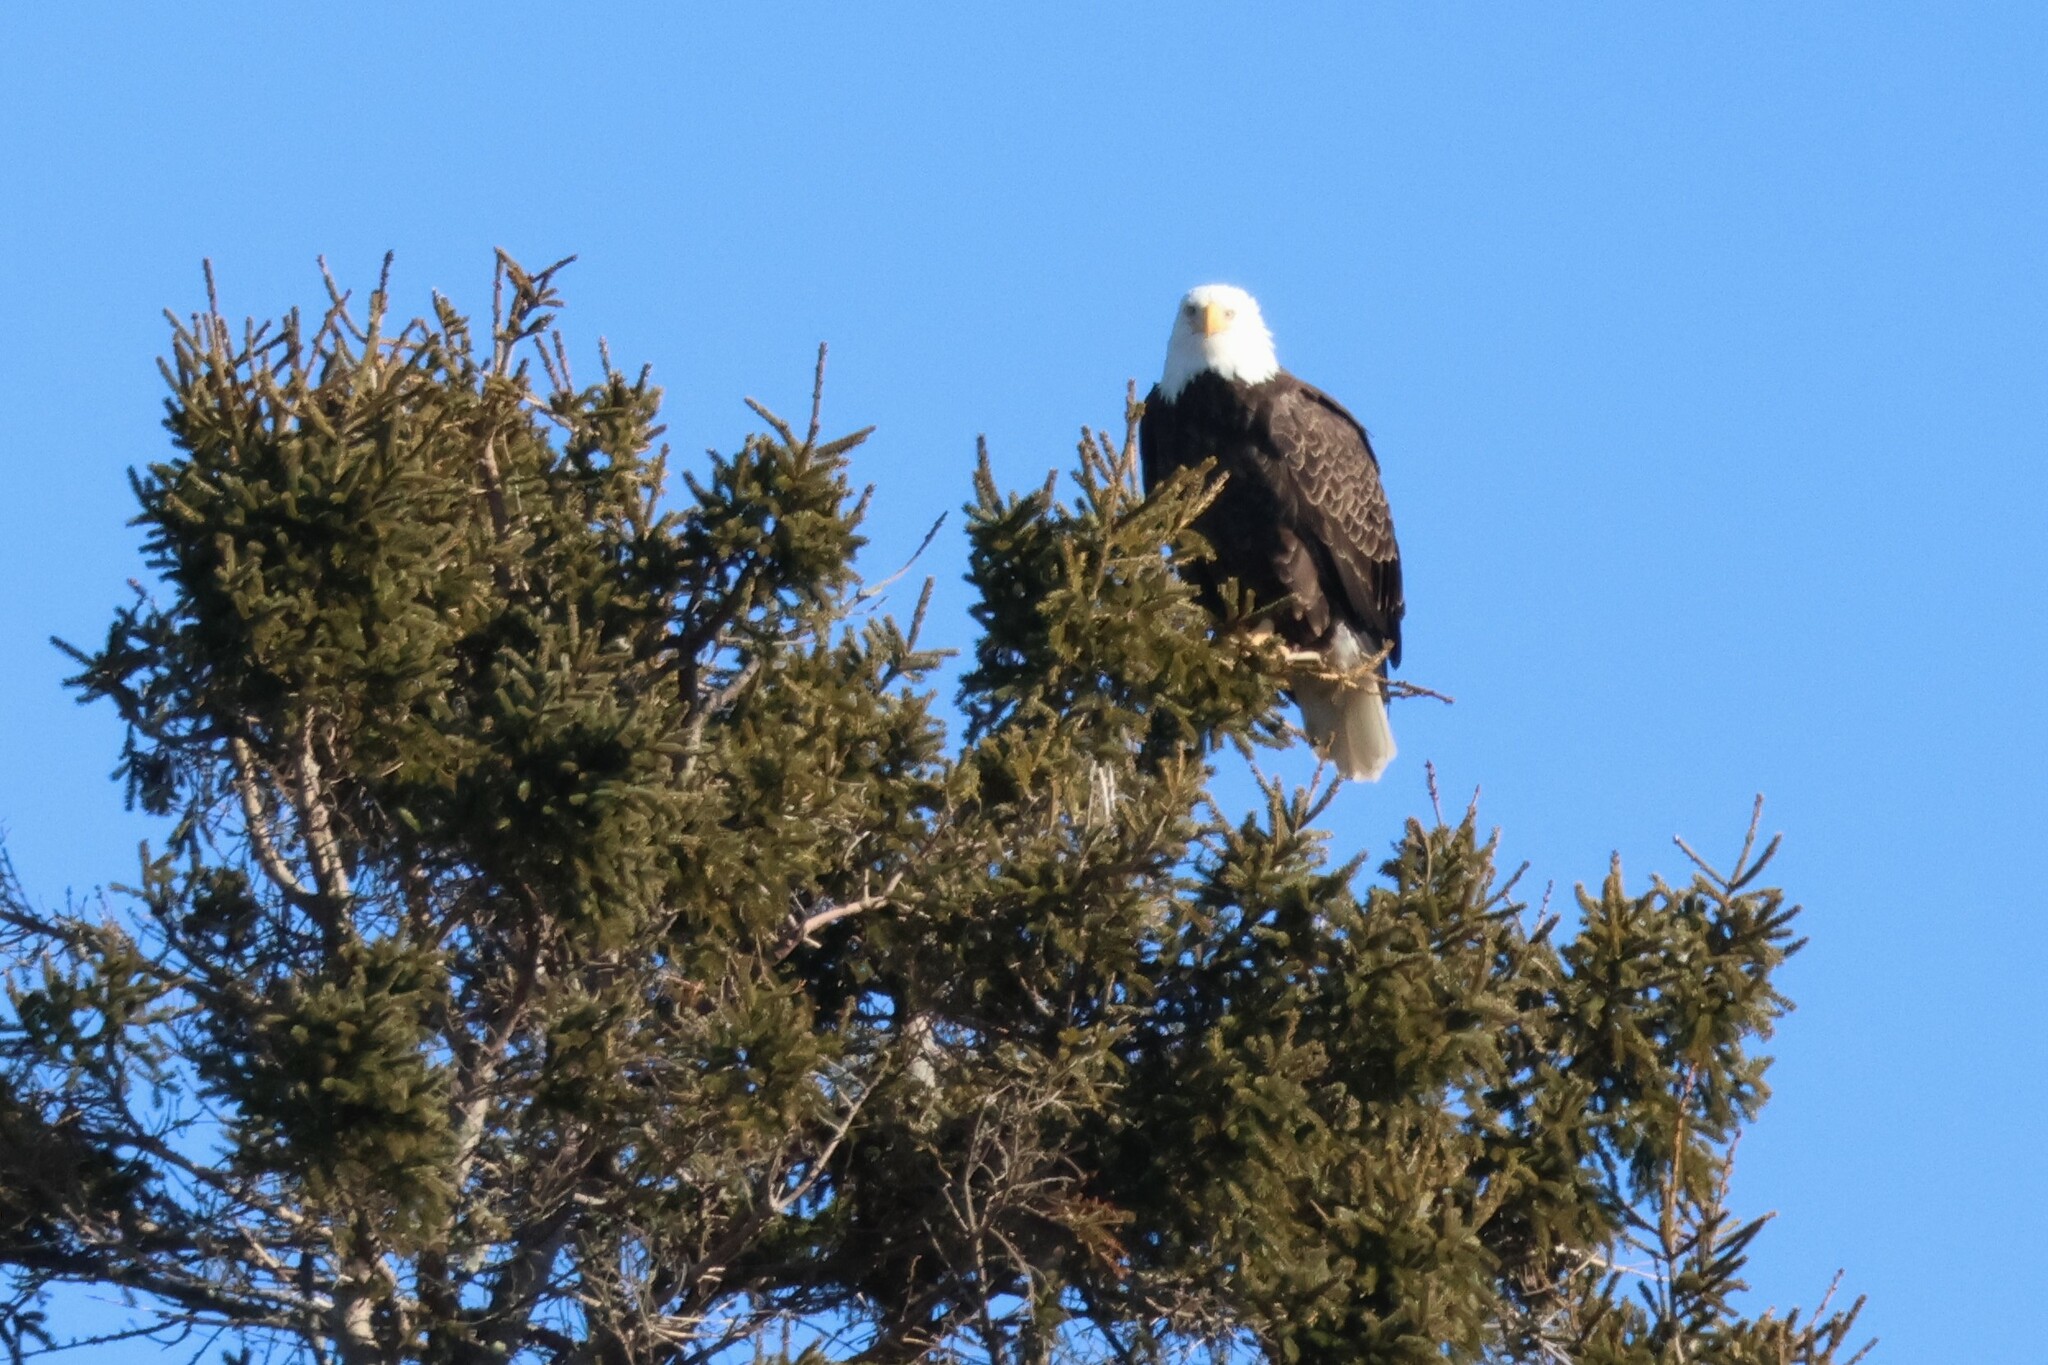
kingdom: Animalia
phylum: Chordata
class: Aves
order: Accipitriformes
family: Accipitridae
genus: Haliaeetus
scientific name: Haliaeetus leucocephalus
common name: Bald eagle
